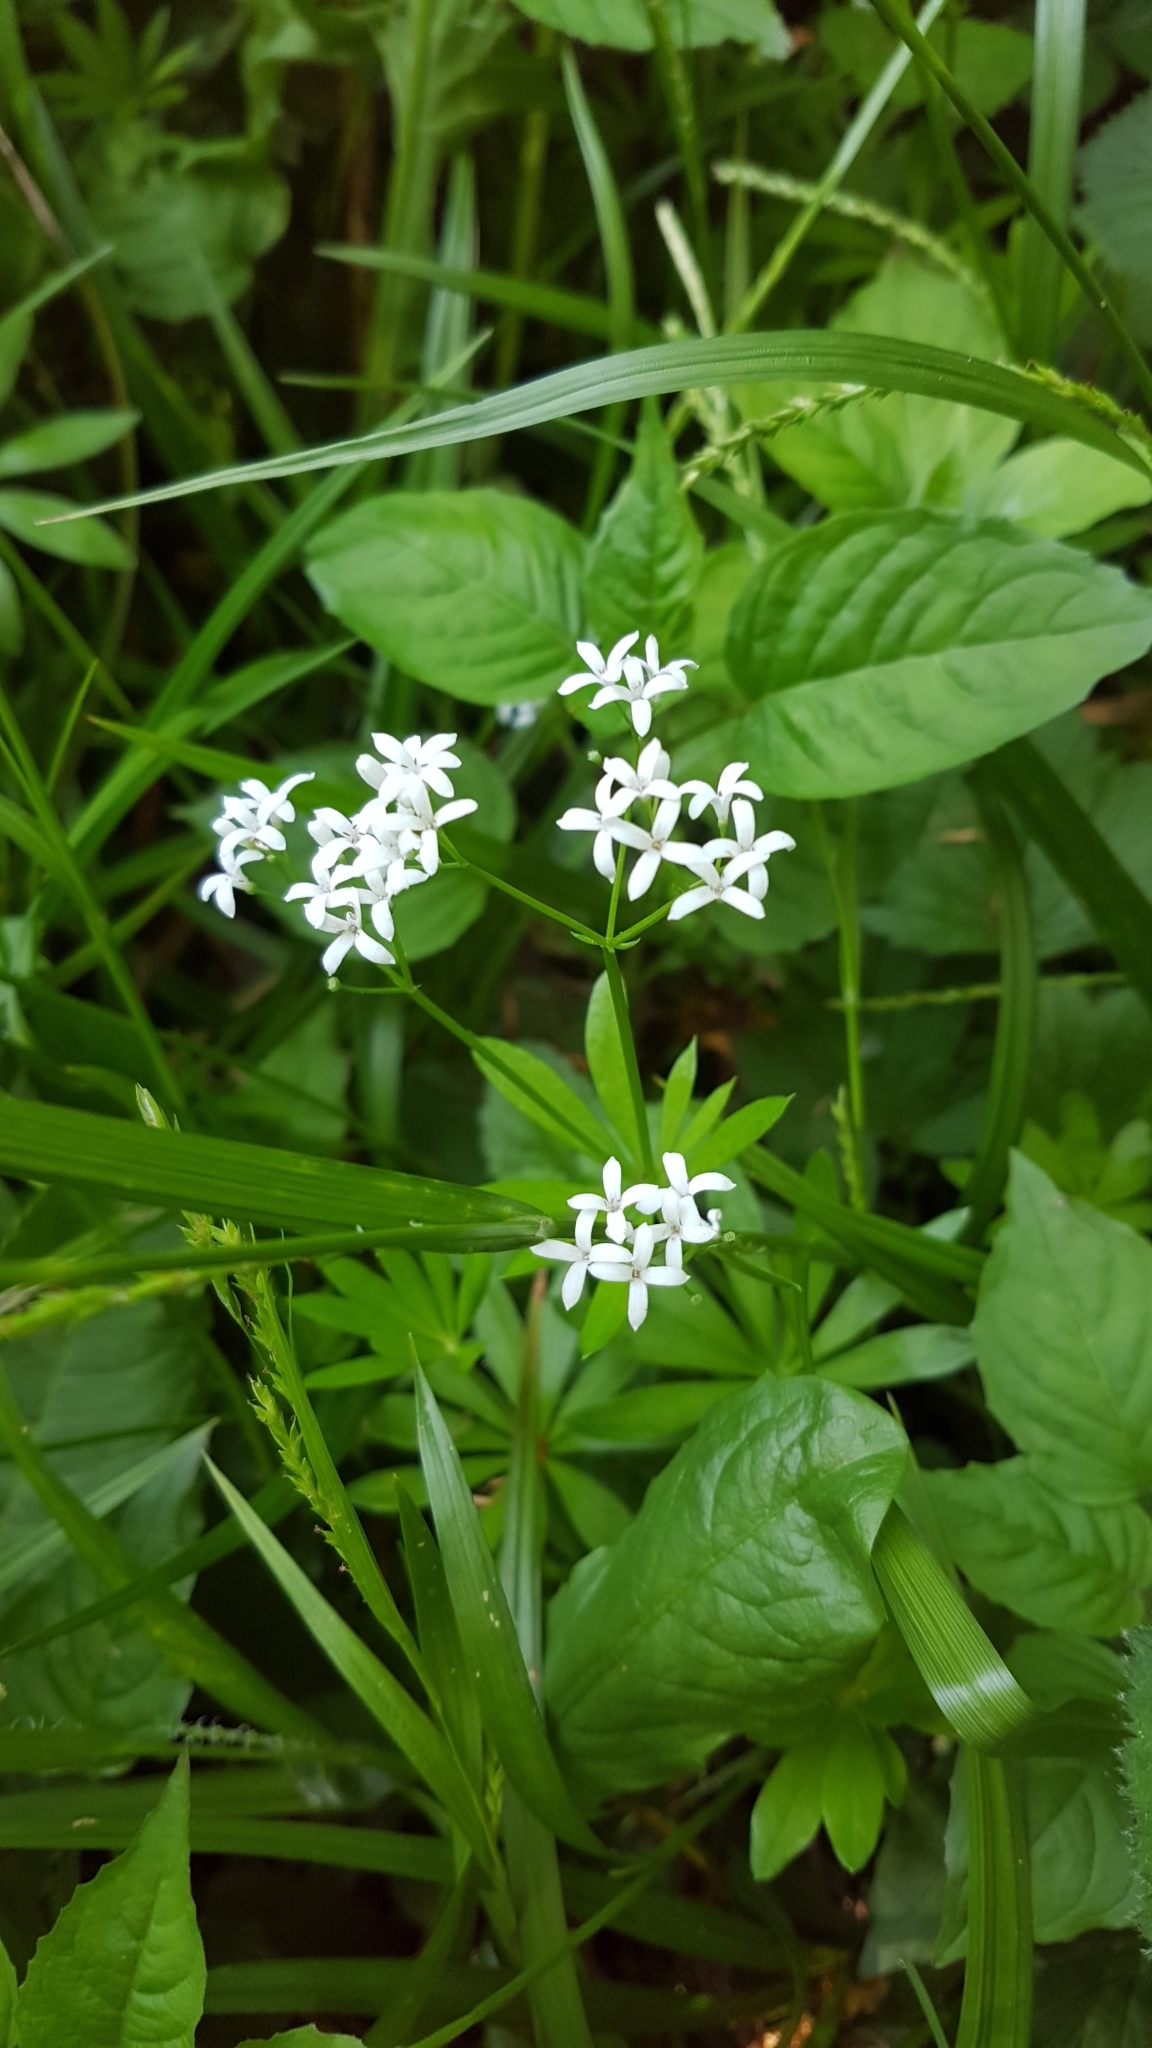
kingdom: Plantae
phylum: Tracheophyta
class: Magnoliopsida
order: Gentianales
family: Rubiaceae
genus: Galium
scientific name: Galium odoratum
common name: Sweet woodruff
